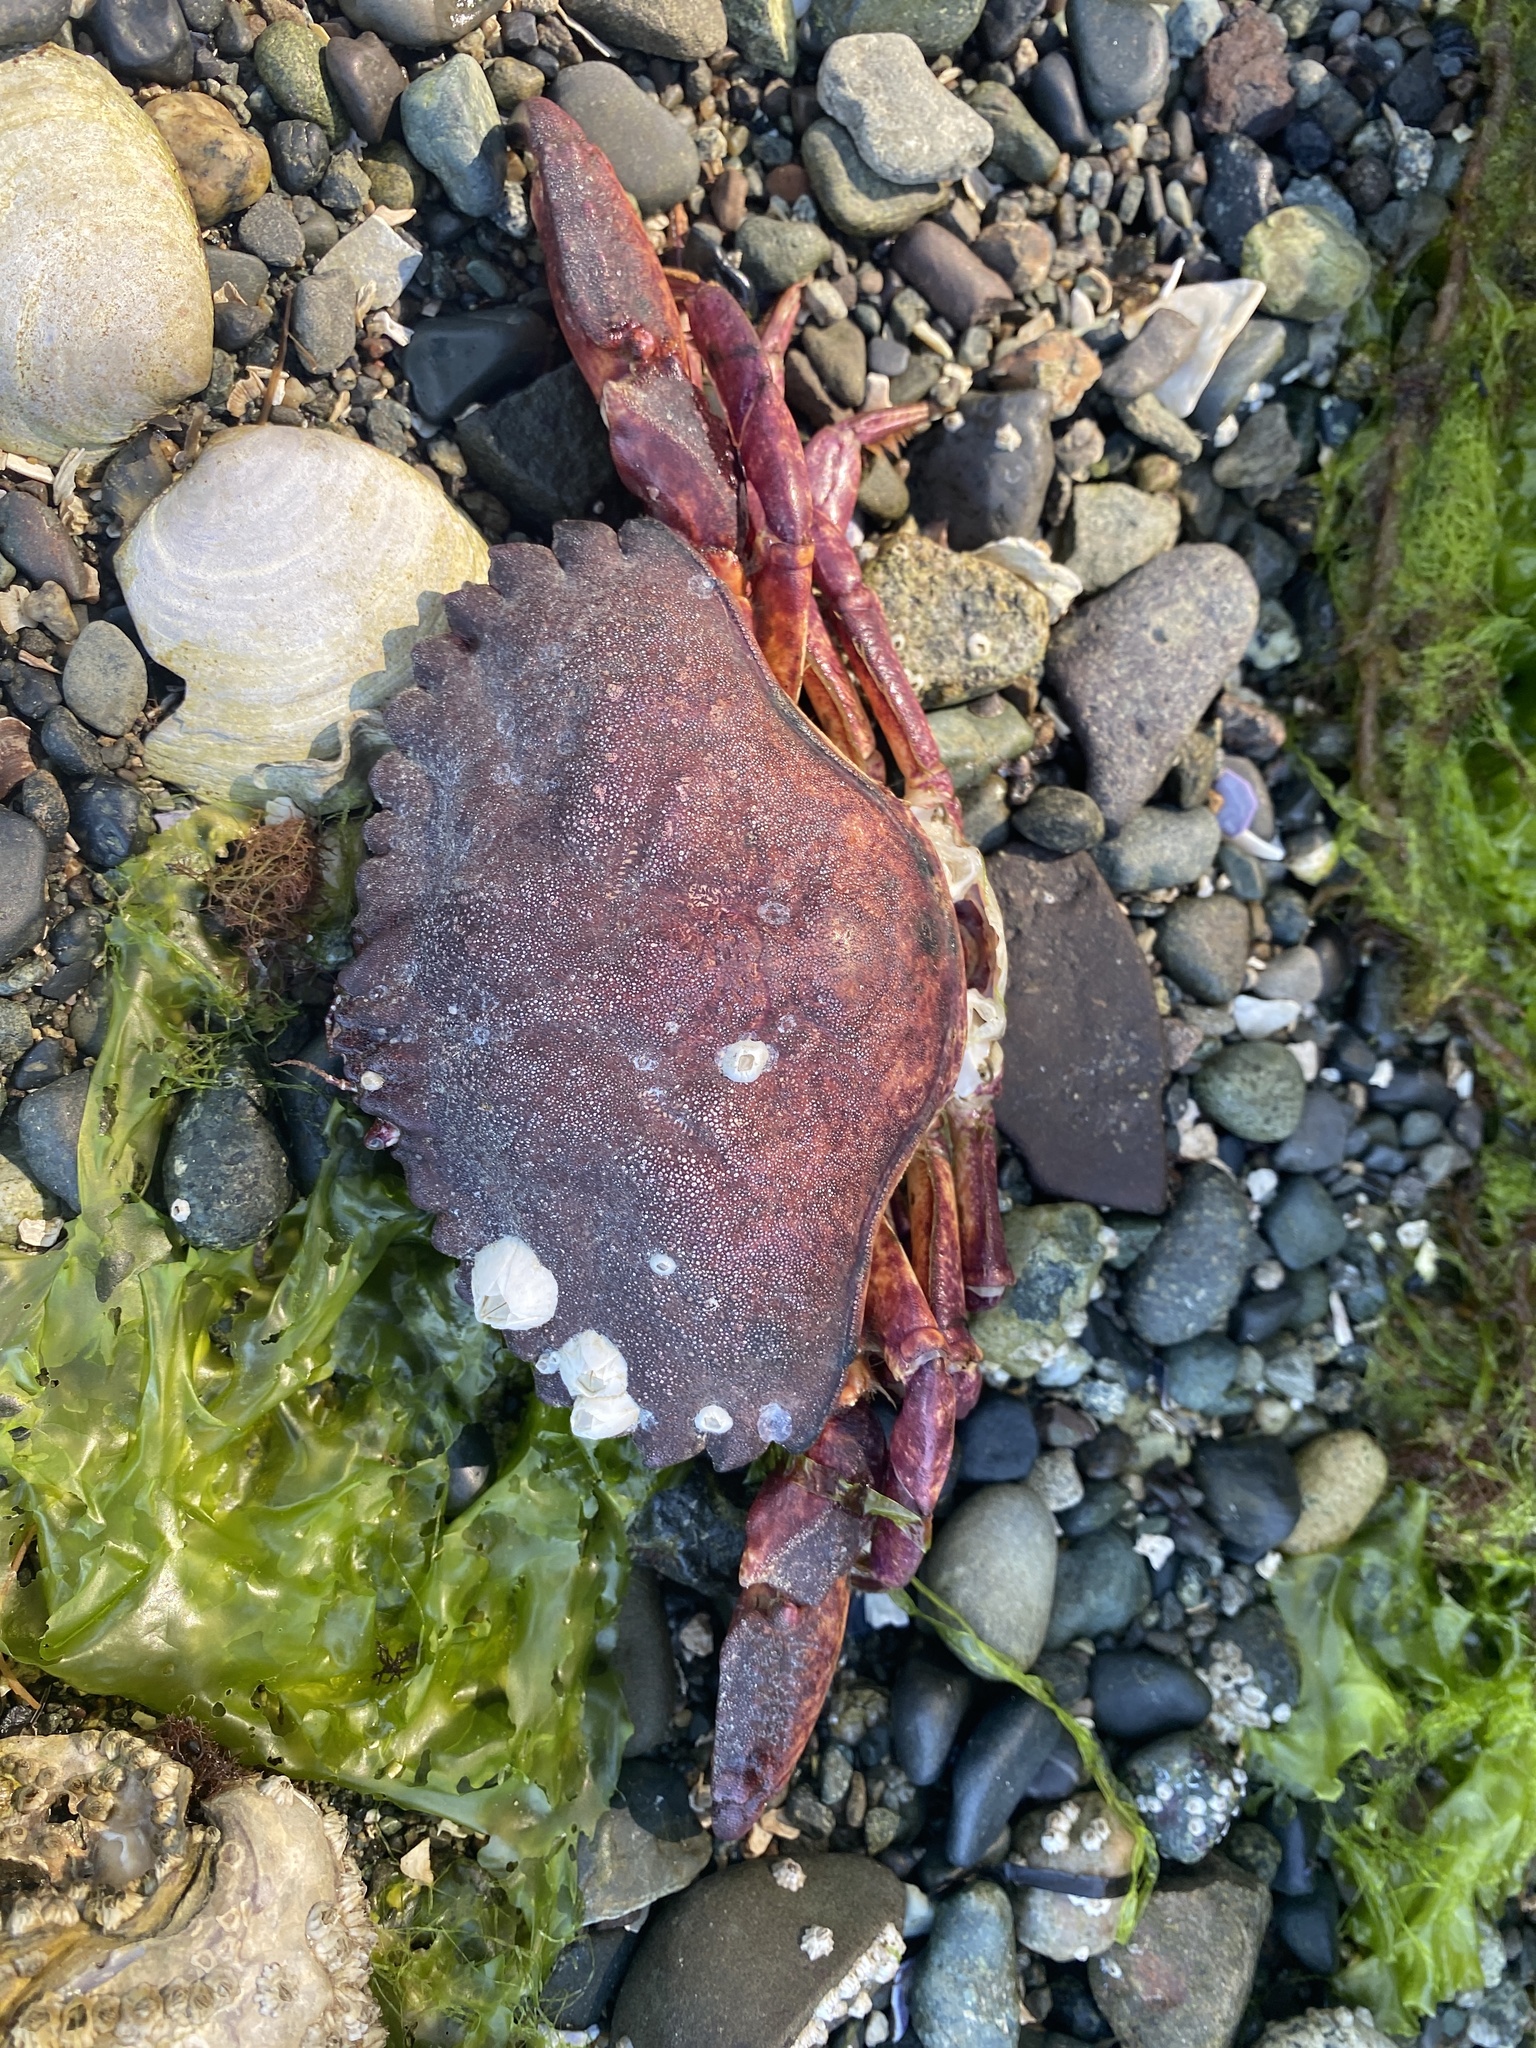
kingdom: Animalia
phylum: Arthropoda
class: Malacostraca
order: Decapoda
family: Cancridae
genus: Cancer
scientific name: Cancer productus
